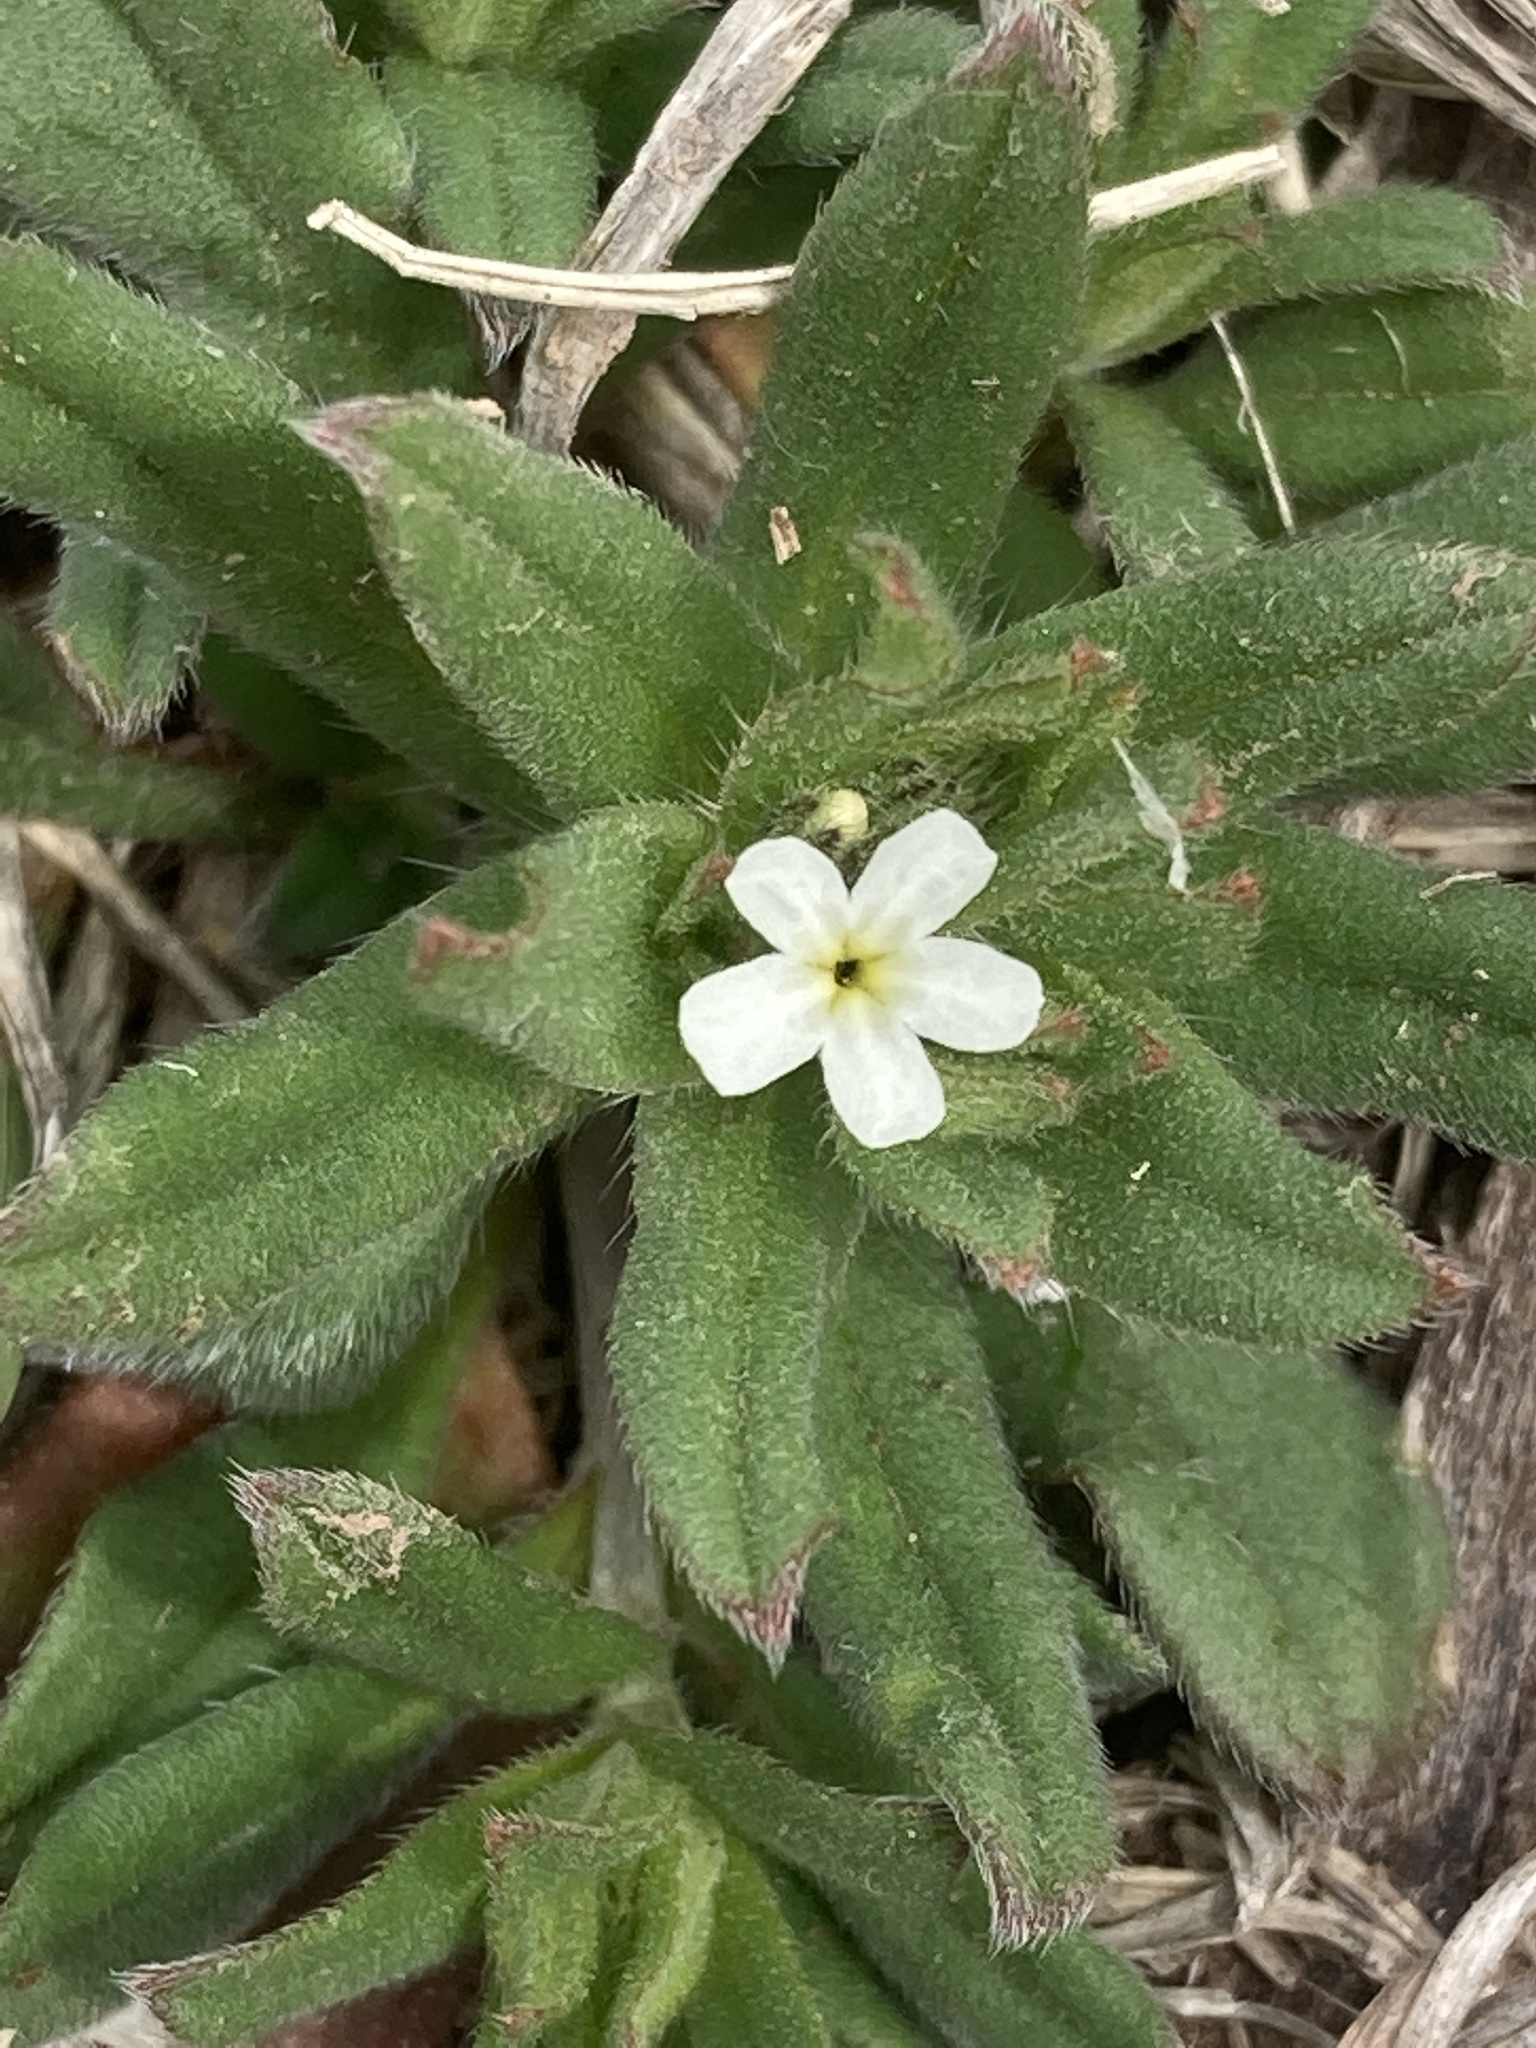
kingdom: Plantae
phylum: Tracheophyta
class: Magnoliopsida
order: Boraginales
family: Boraginaceae
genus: Buglossoides
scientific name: Buglossoides arvensis
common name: Corn gromwell
